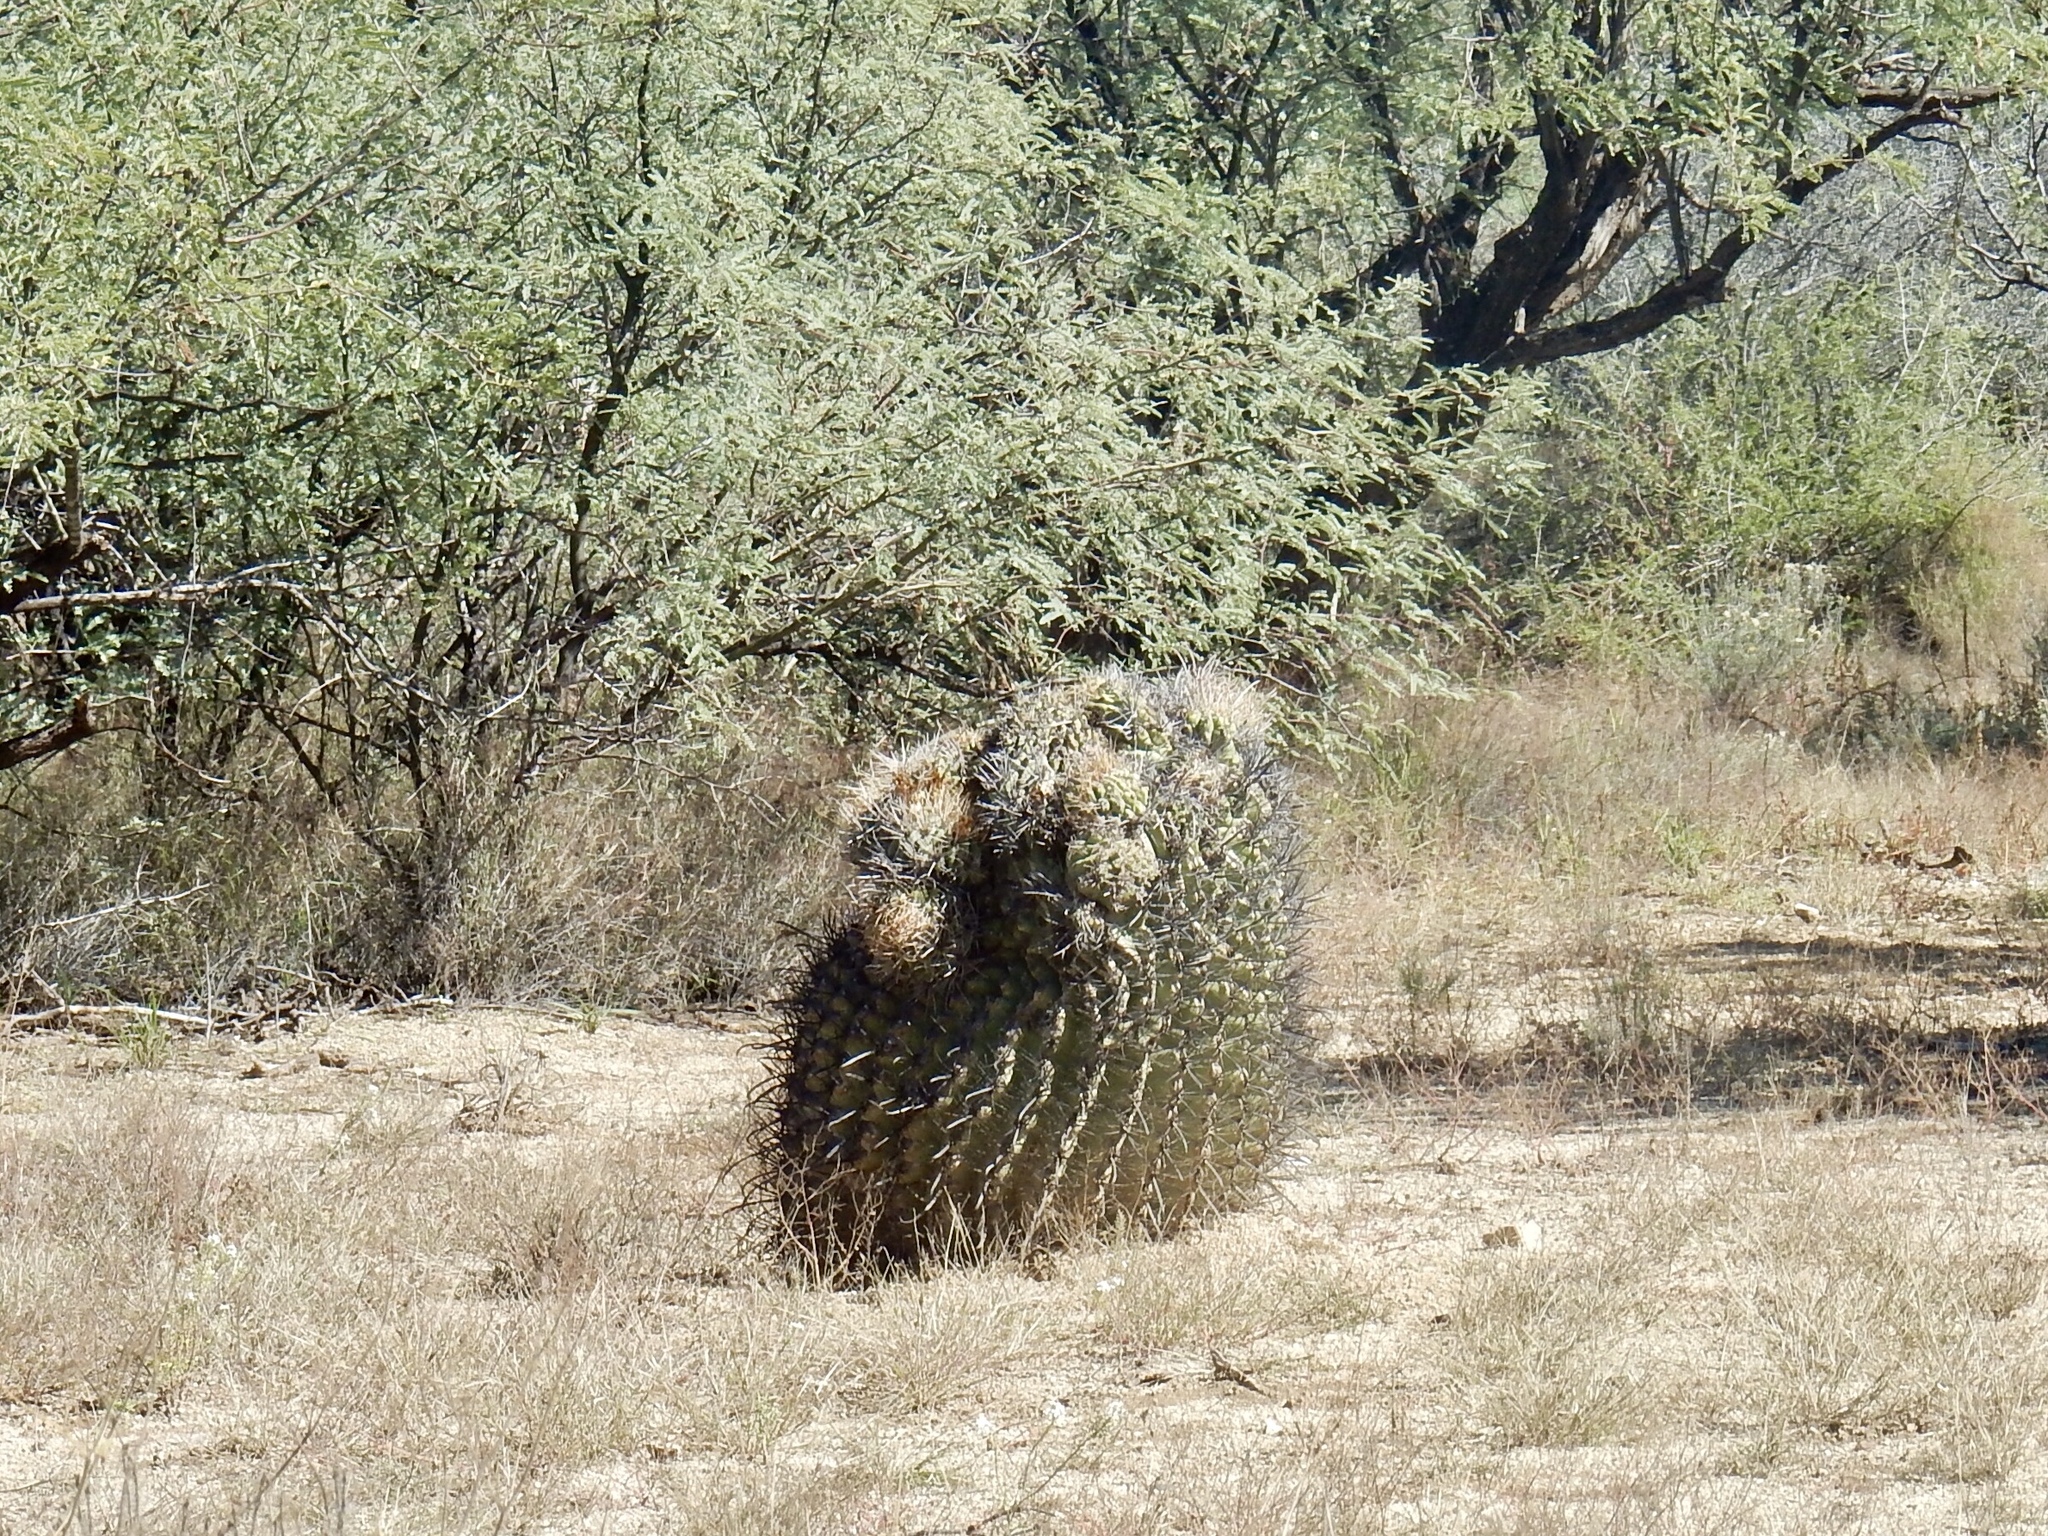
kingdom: Plantae
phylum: Tracheophyta
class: Magnoliopsida
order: Caryophyllales
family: Cactaceae
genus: Ferocactus
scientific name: Ferocactus wislizeni
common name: Candy barrel cactus
